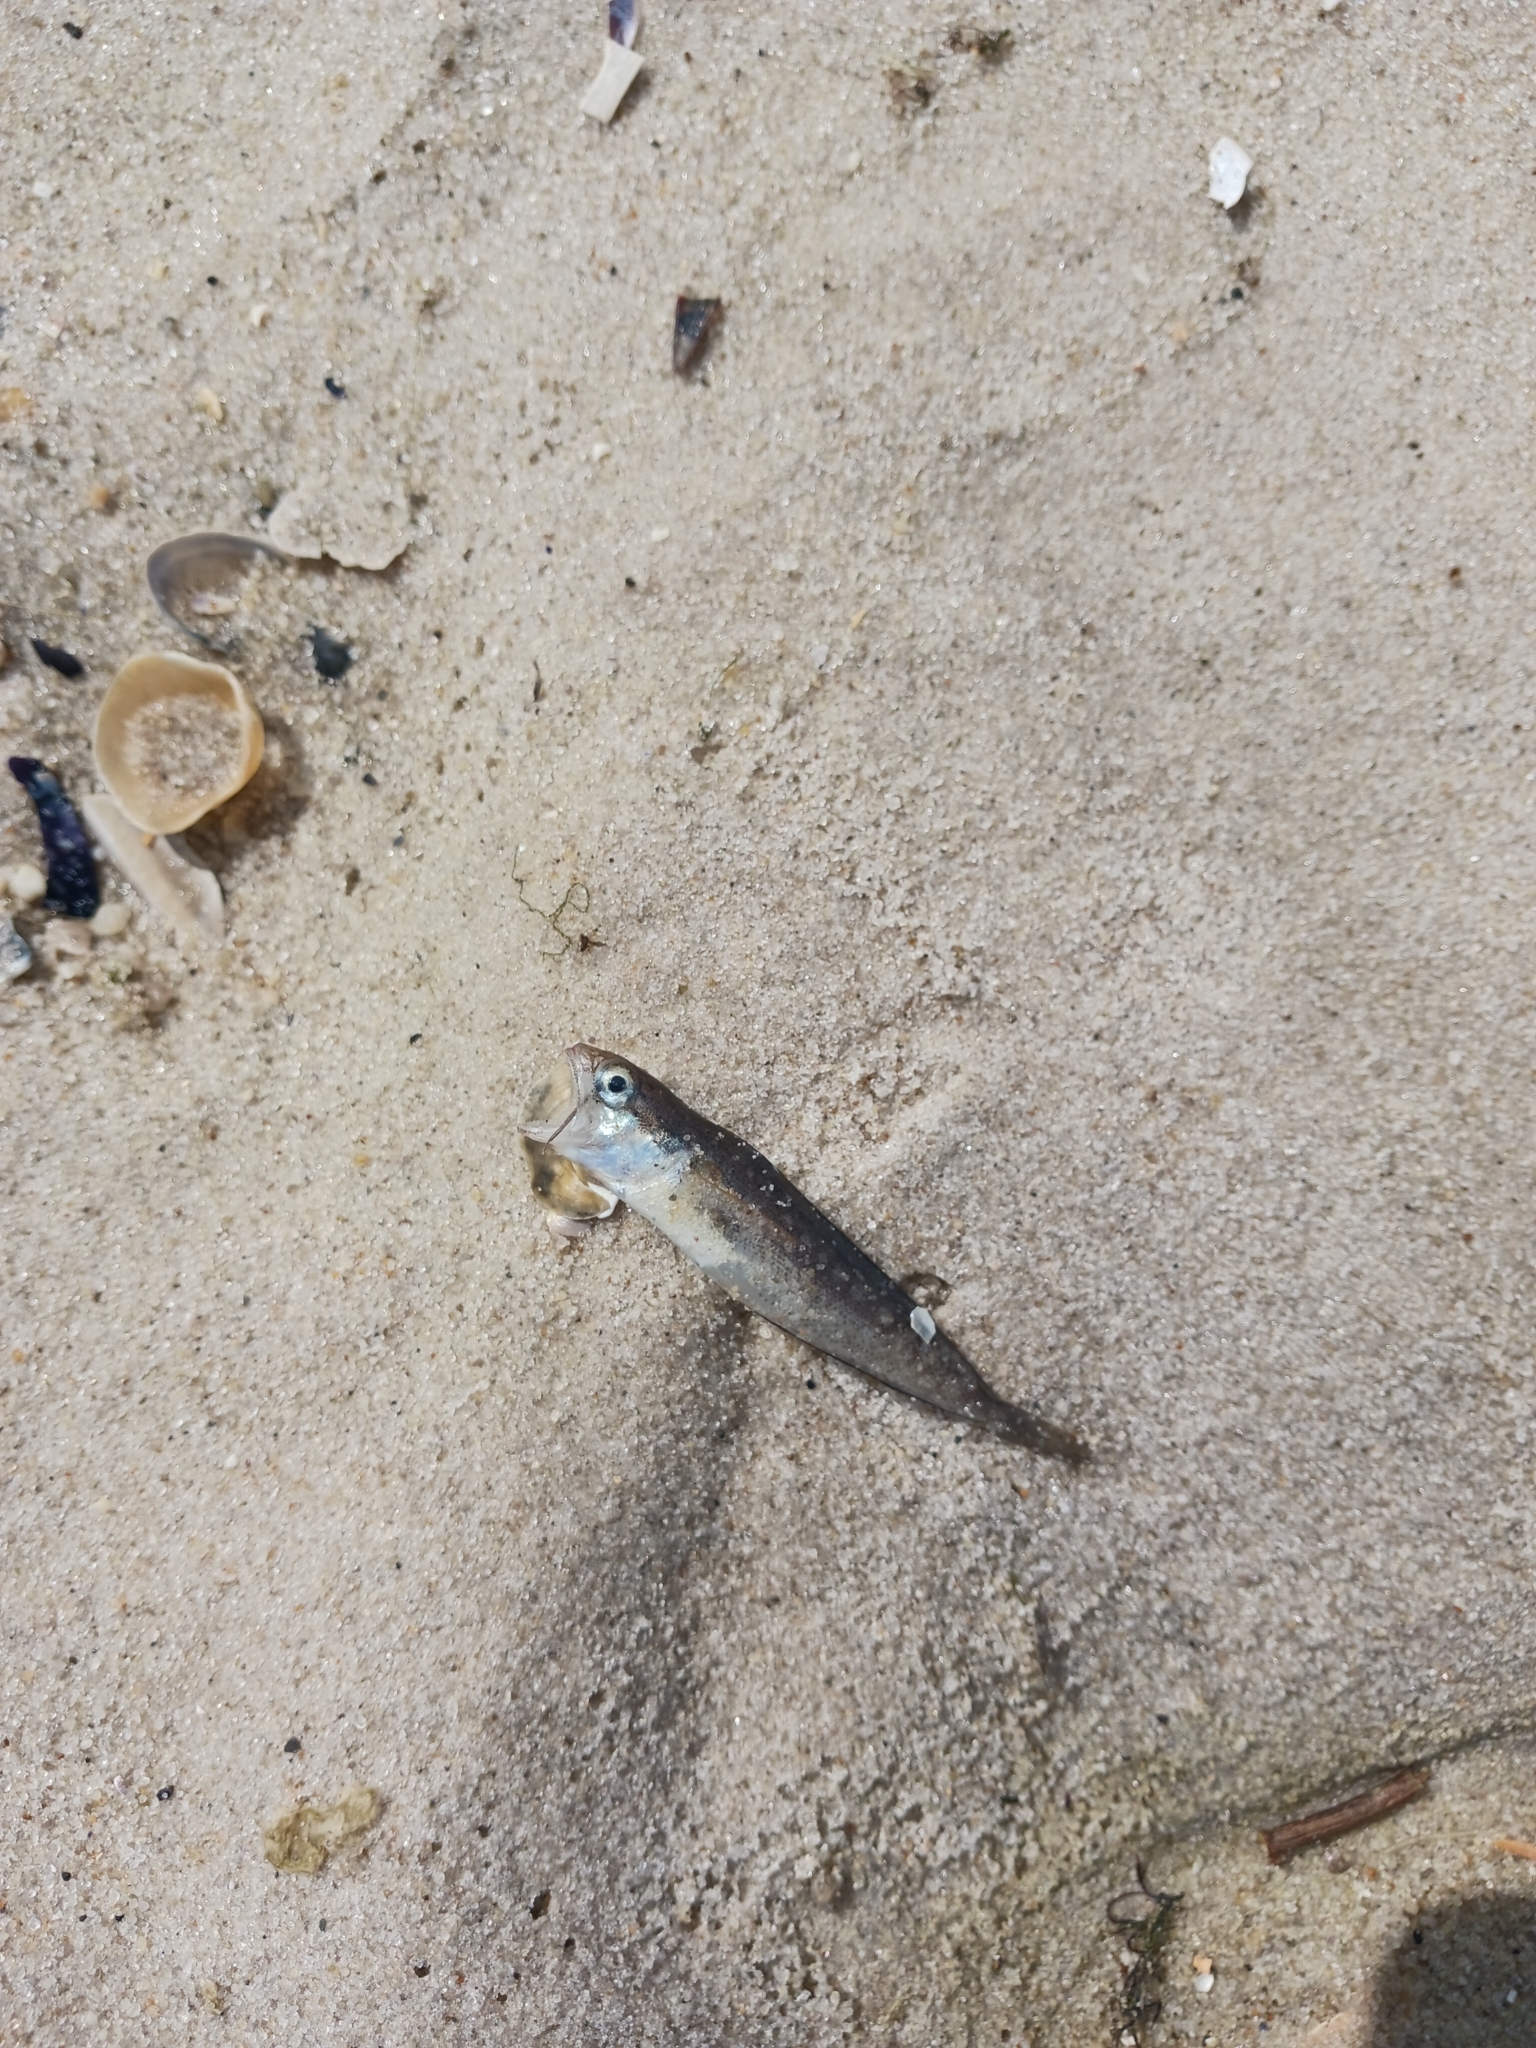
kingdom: Animalia
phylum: Chordata
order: Gadiformes
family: Phycidae
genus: Urophycis
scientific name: Urophycis regia
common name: Spotted codling
